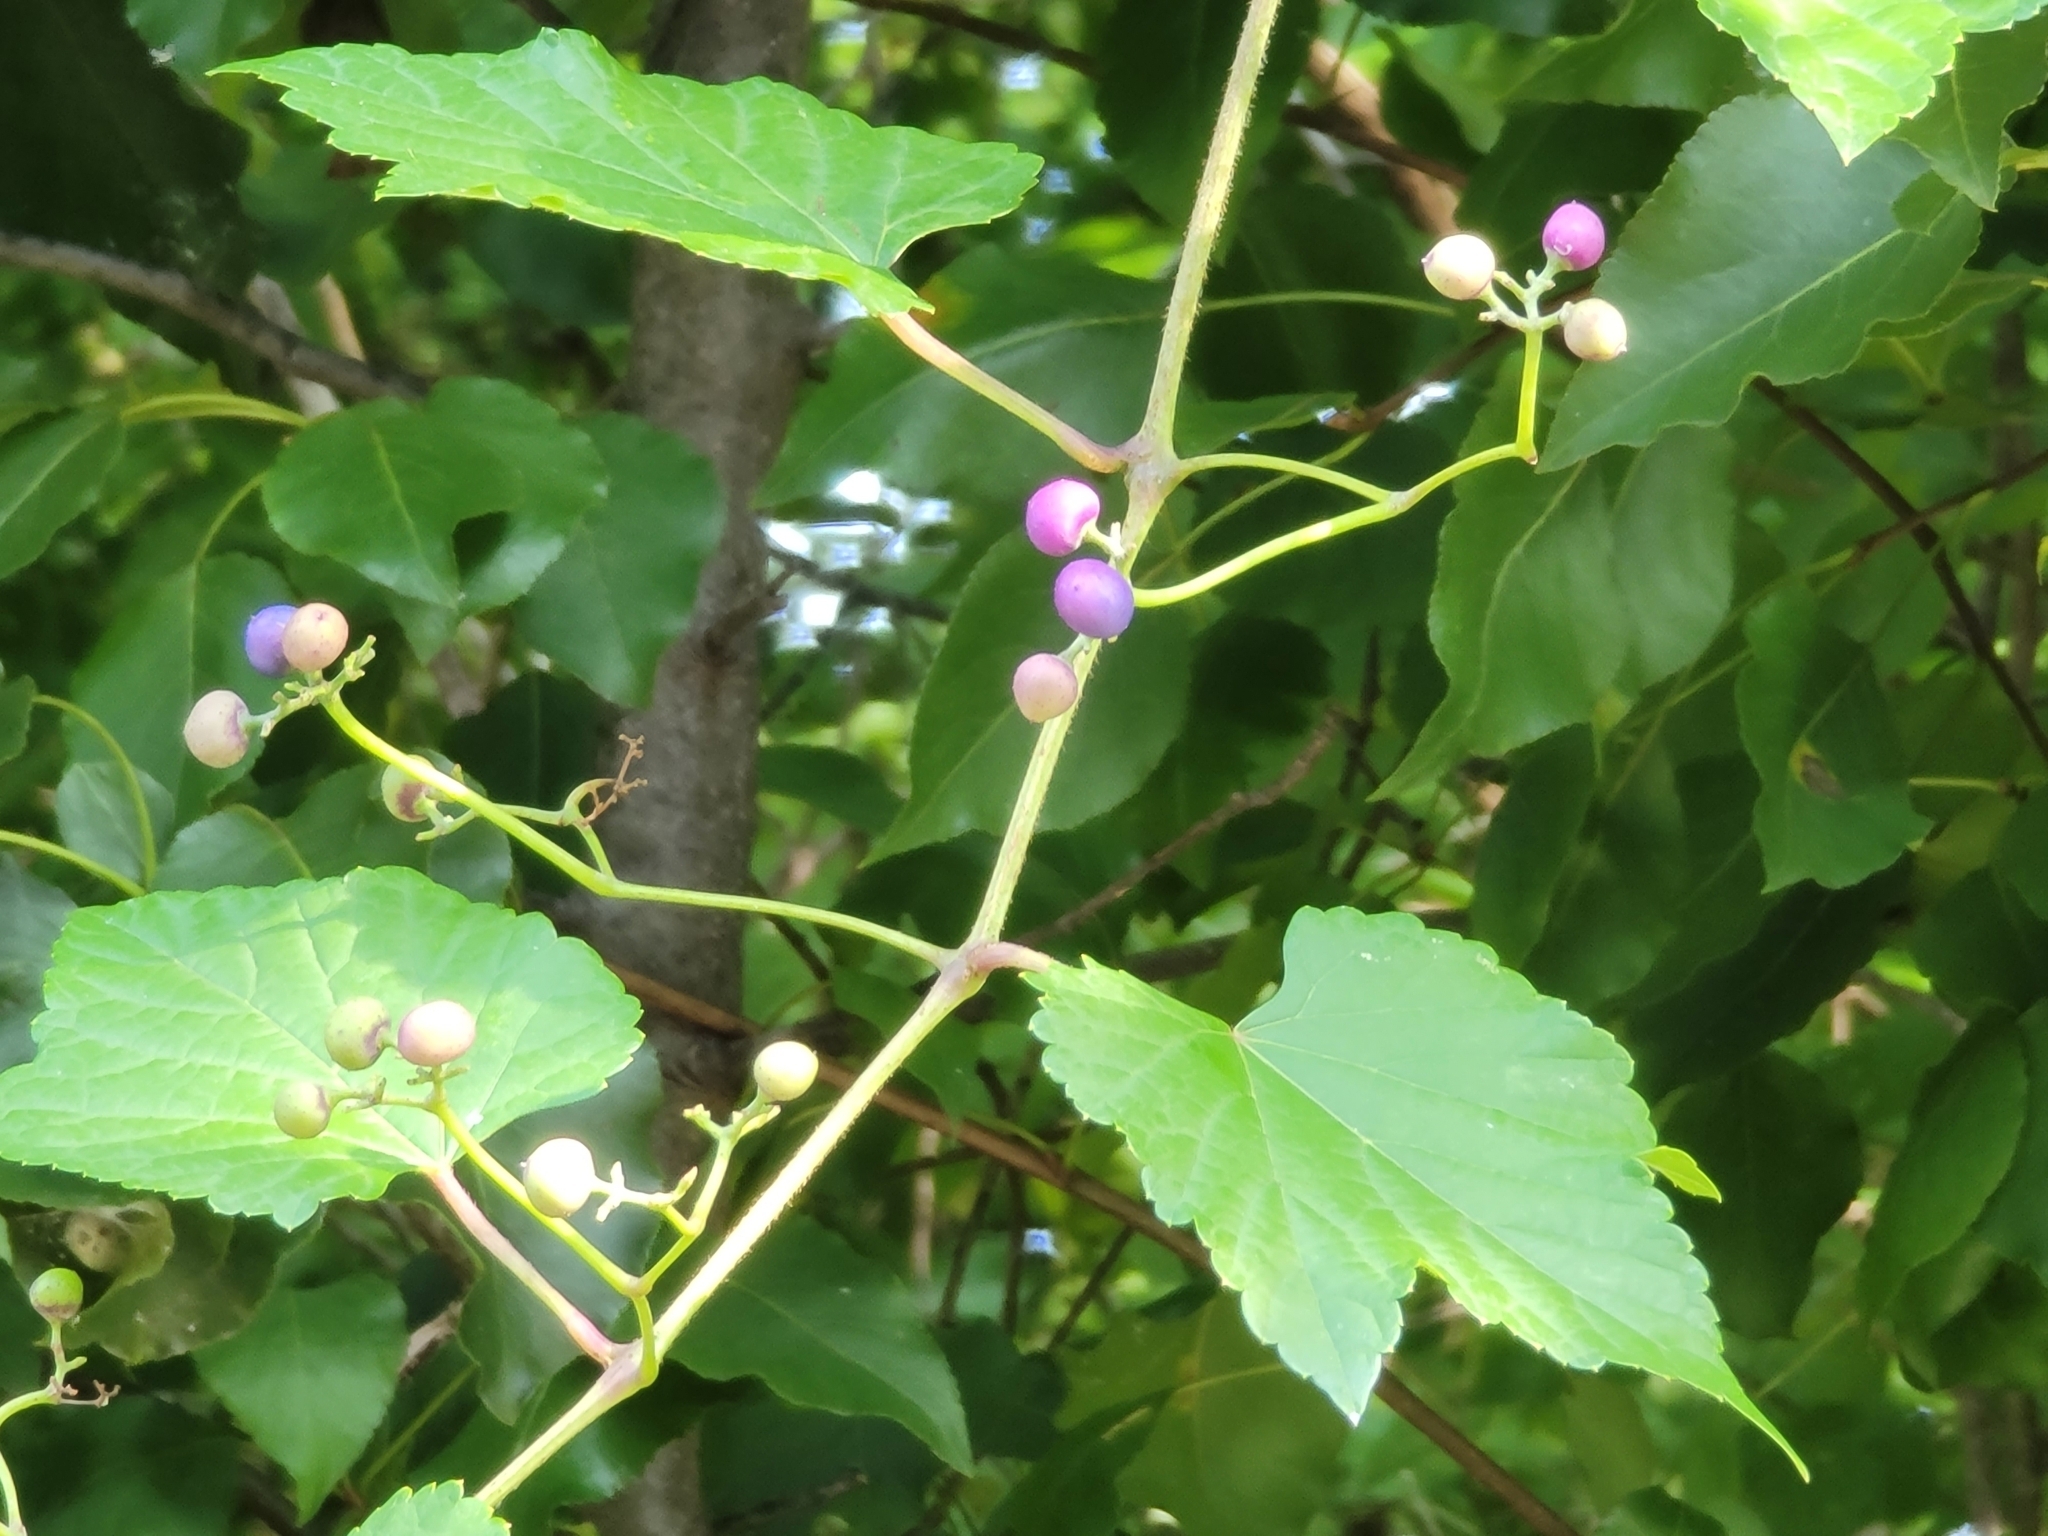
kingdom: Plantae
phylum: Tracheophyta
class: Magnoliopsida
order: Vitales
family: Vitaceae
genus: Ampelopsis
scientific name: Ampelopsis glandulosa
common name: Amur peppervine
